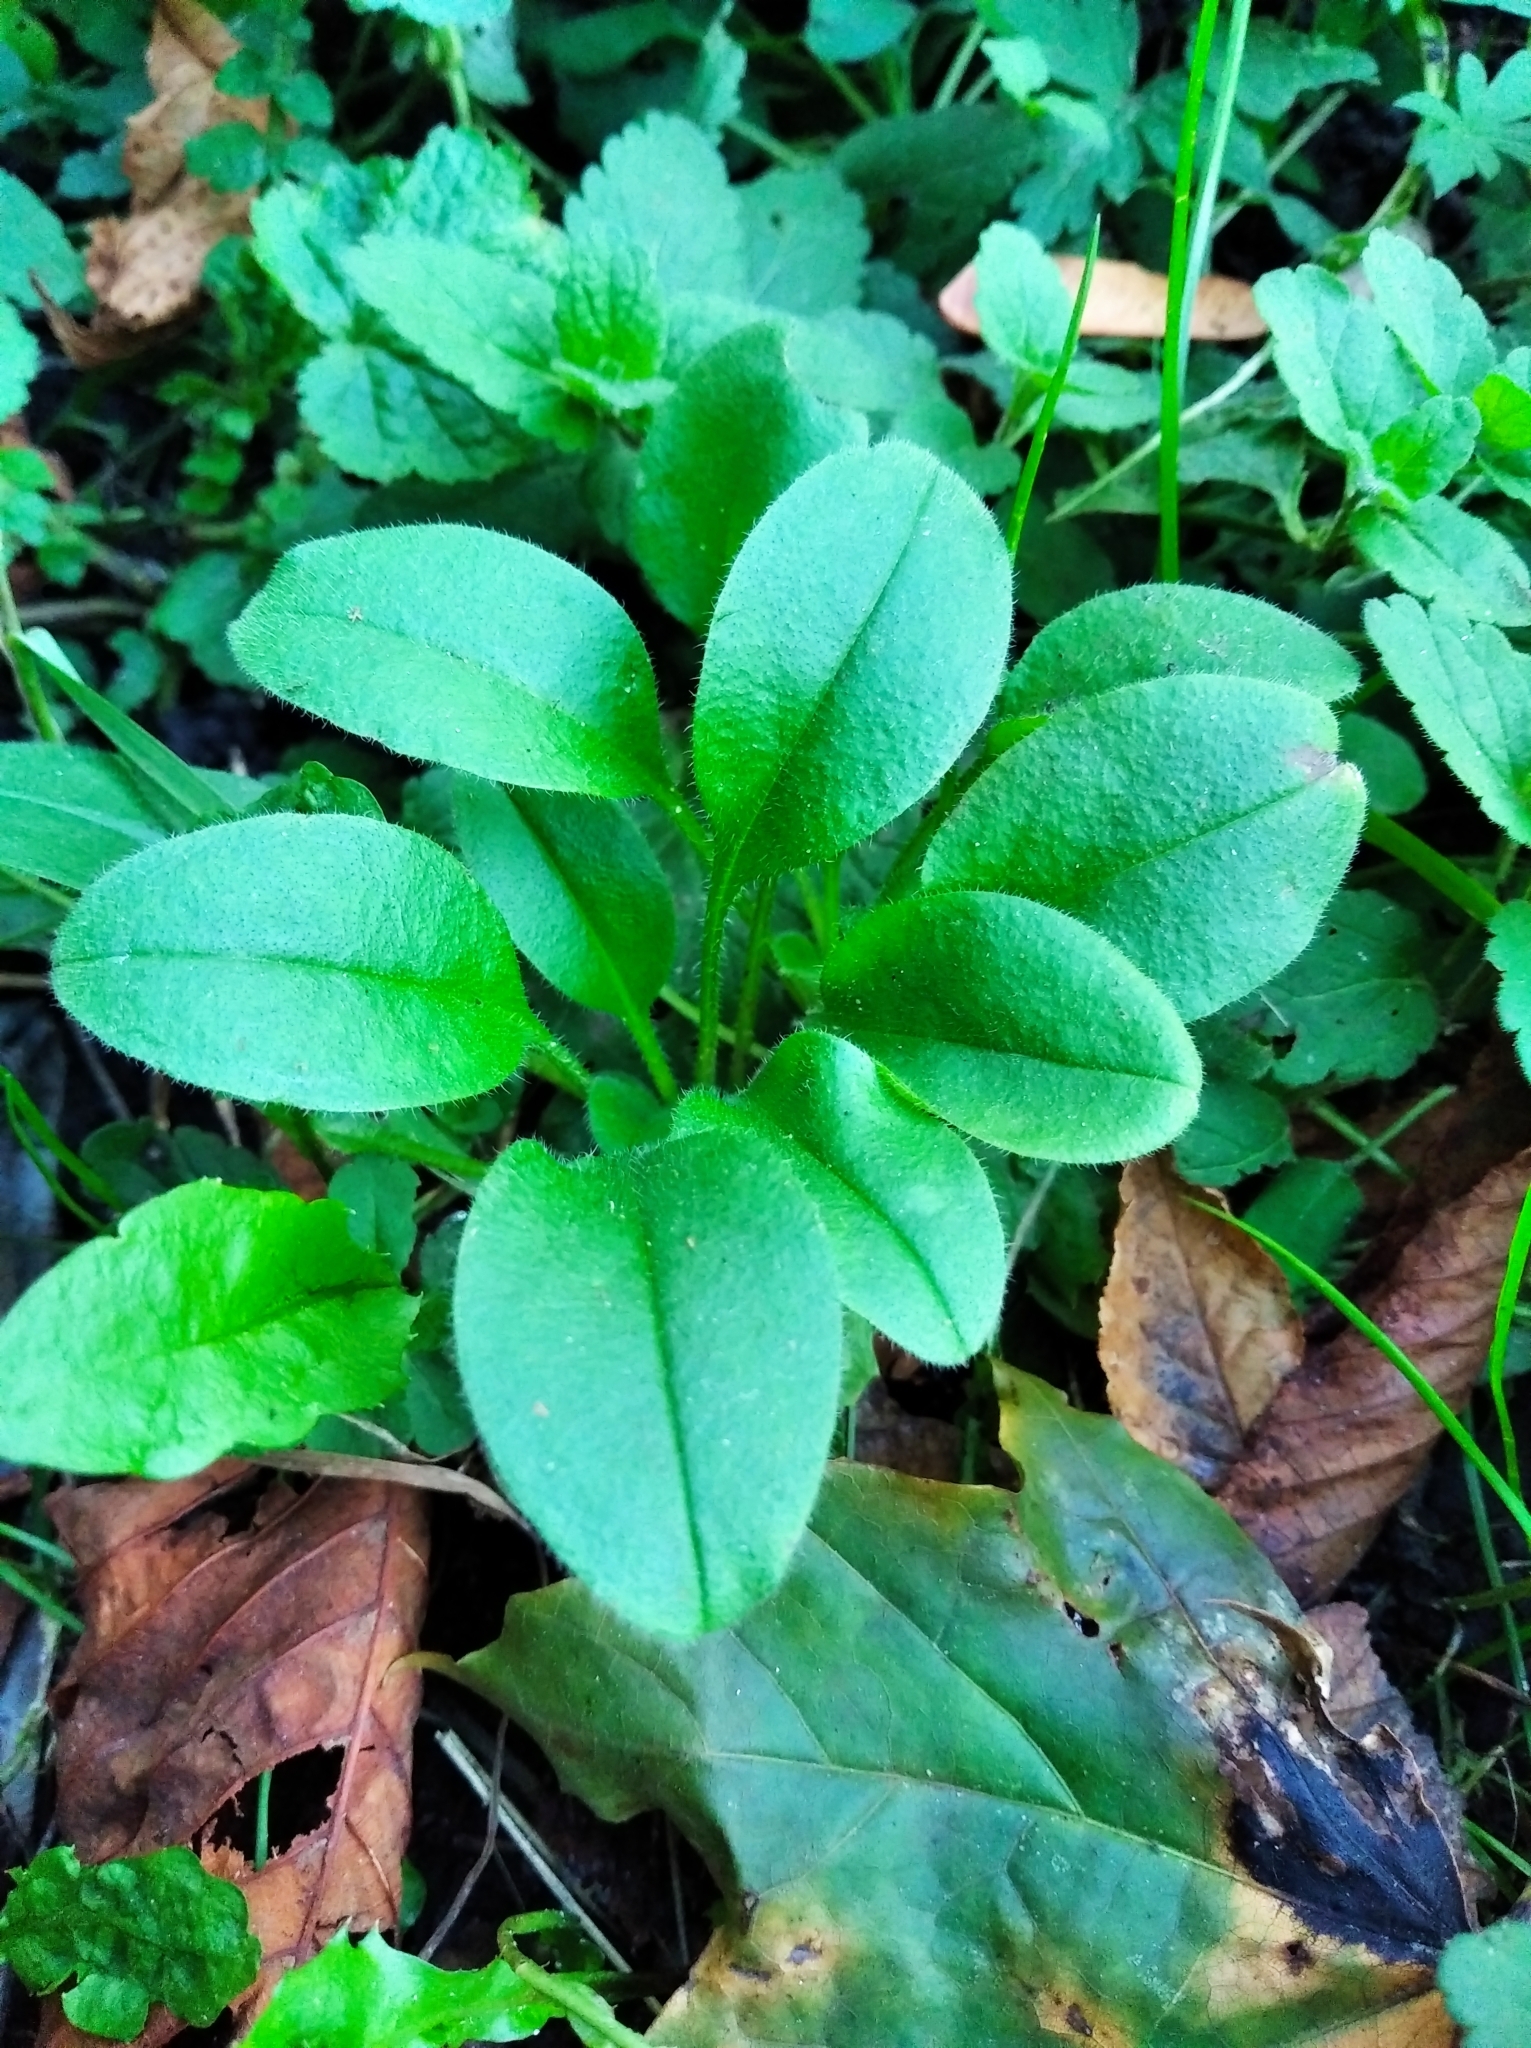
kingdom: Plantae
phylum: Tracheophyta
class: Magnoliopsida
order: Boraginales
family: Boraginaceae
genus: Myosotis
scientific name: Myosotis sparsiflora
